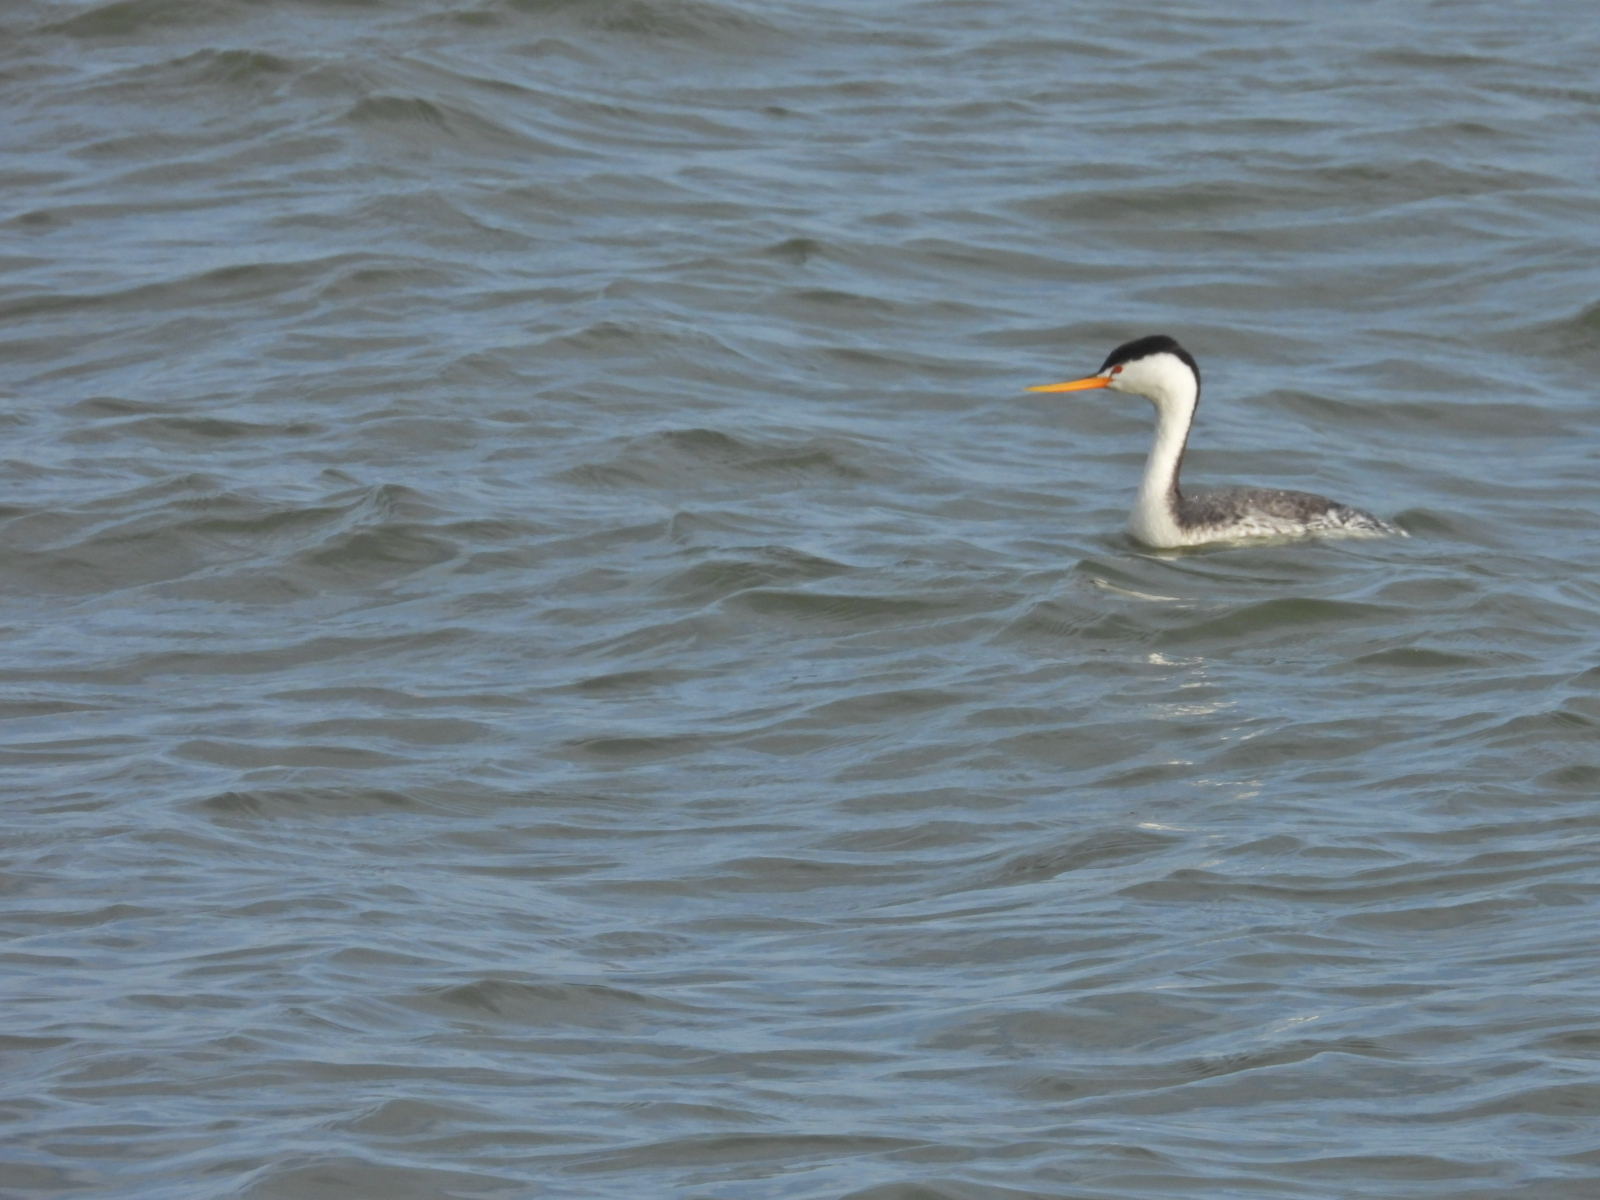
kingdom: Animalia
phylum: Chordata
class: Aves
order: Podicipediformes
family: Podicipedidae
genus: Aechmophorus
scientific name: Aechmophorus clarkii
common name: Clark's grebe
